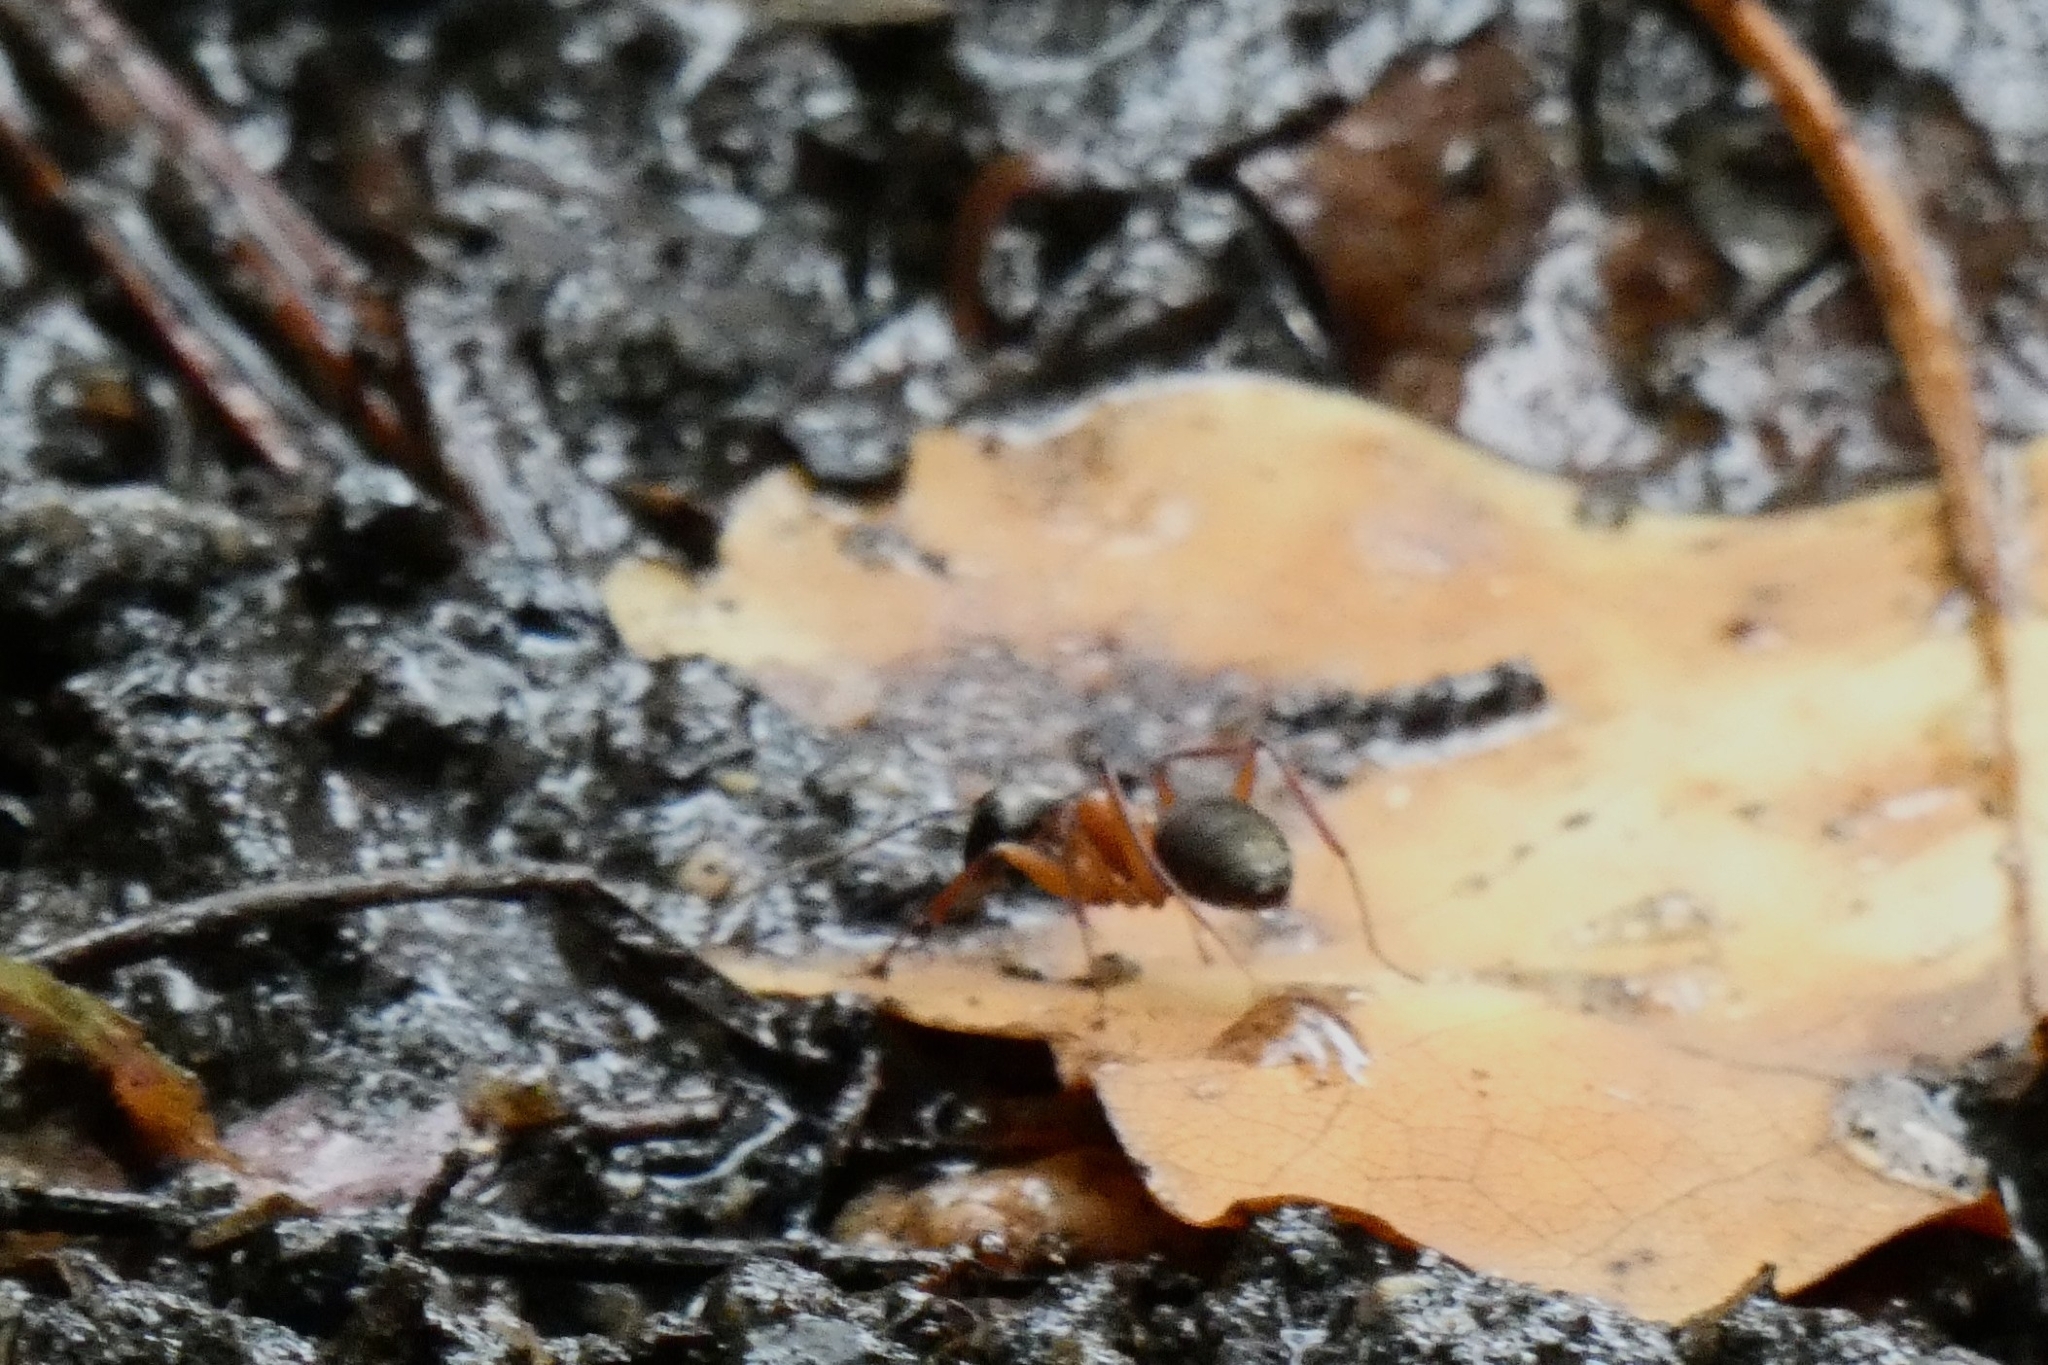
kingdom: Animalia
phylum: Arthropoda
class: Insecta
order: Hymenoptera
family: Formicidae
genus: Camponotus
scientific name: Camponotus chromaiodes
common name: Red carpenter ant
